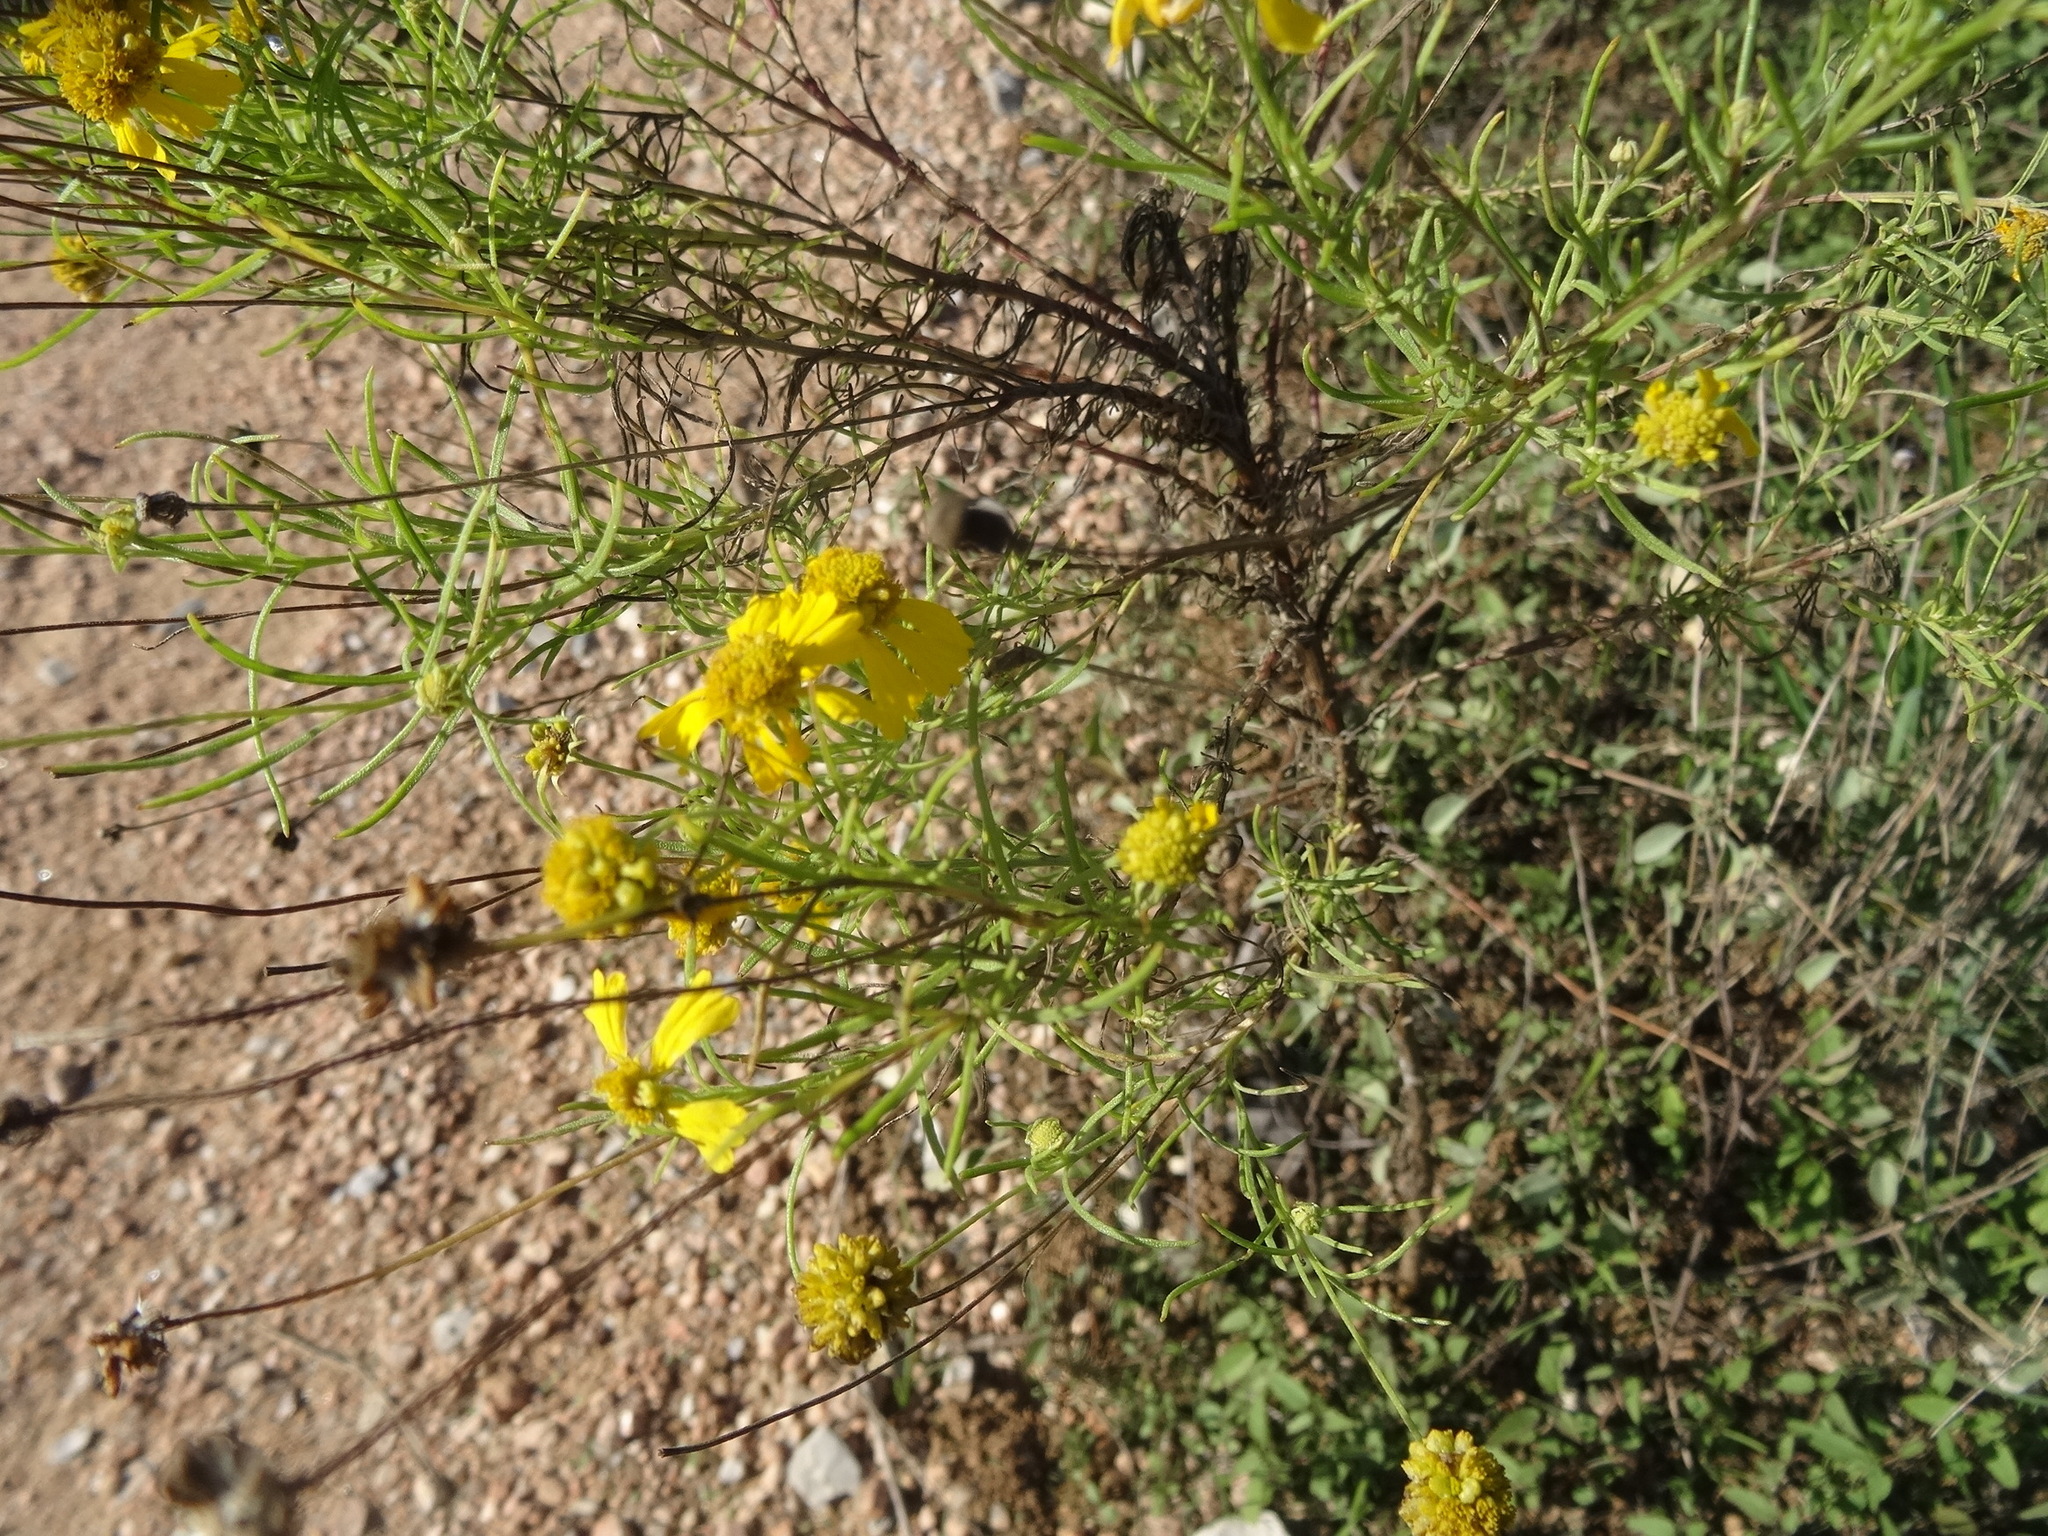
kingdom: Plantae
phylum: Tracheophyta
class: Magnoliopsida
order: Asterales
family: Asteraceae
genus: Helenium
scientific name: Helenium amarum
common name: Bitter sneezeweed
